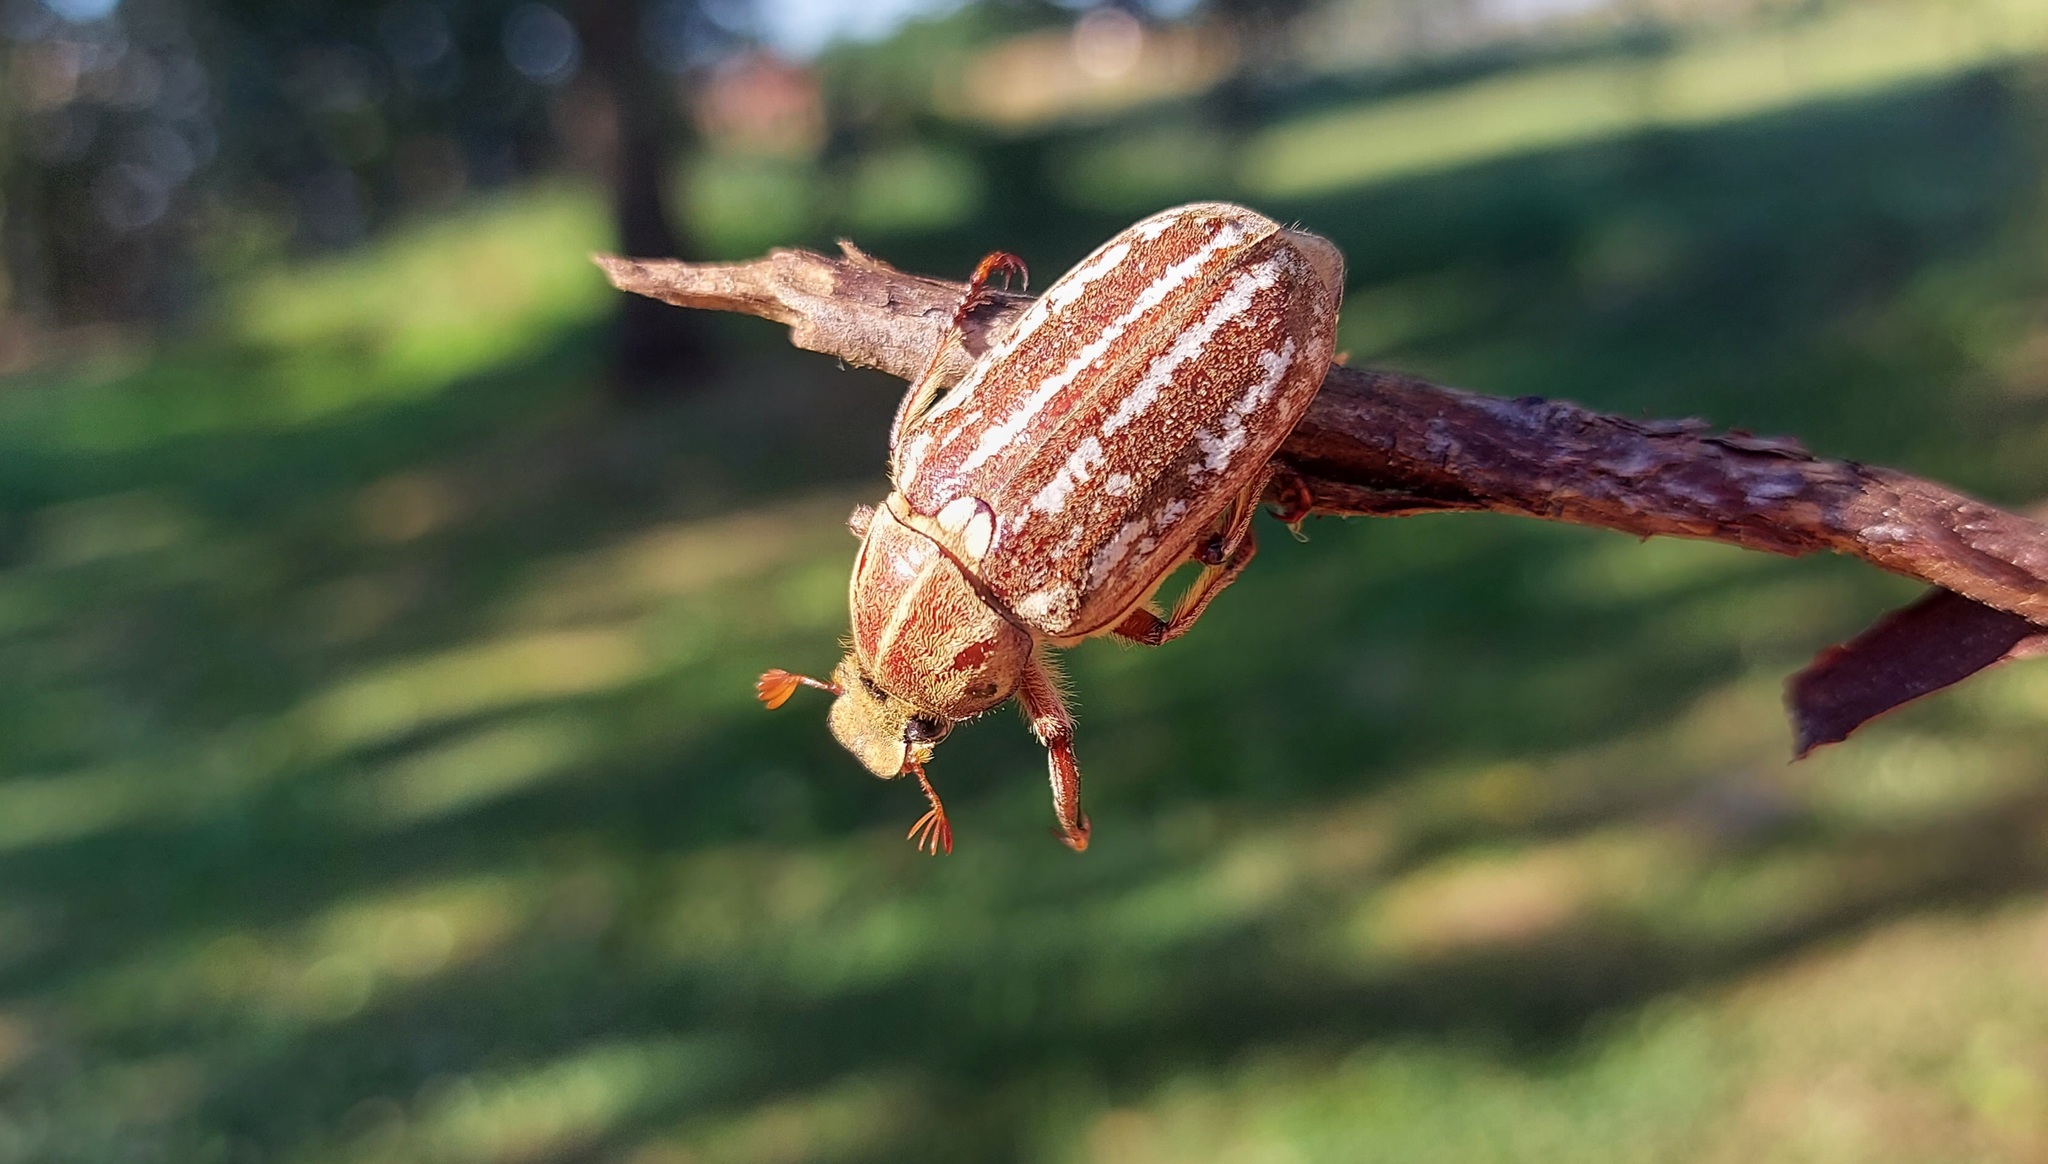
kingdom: Animalia
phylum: Arthropoda
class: Insecta
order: Coleoptera
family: Scarabaeidae
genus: Anoxia
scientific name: Anoxia orientalis
